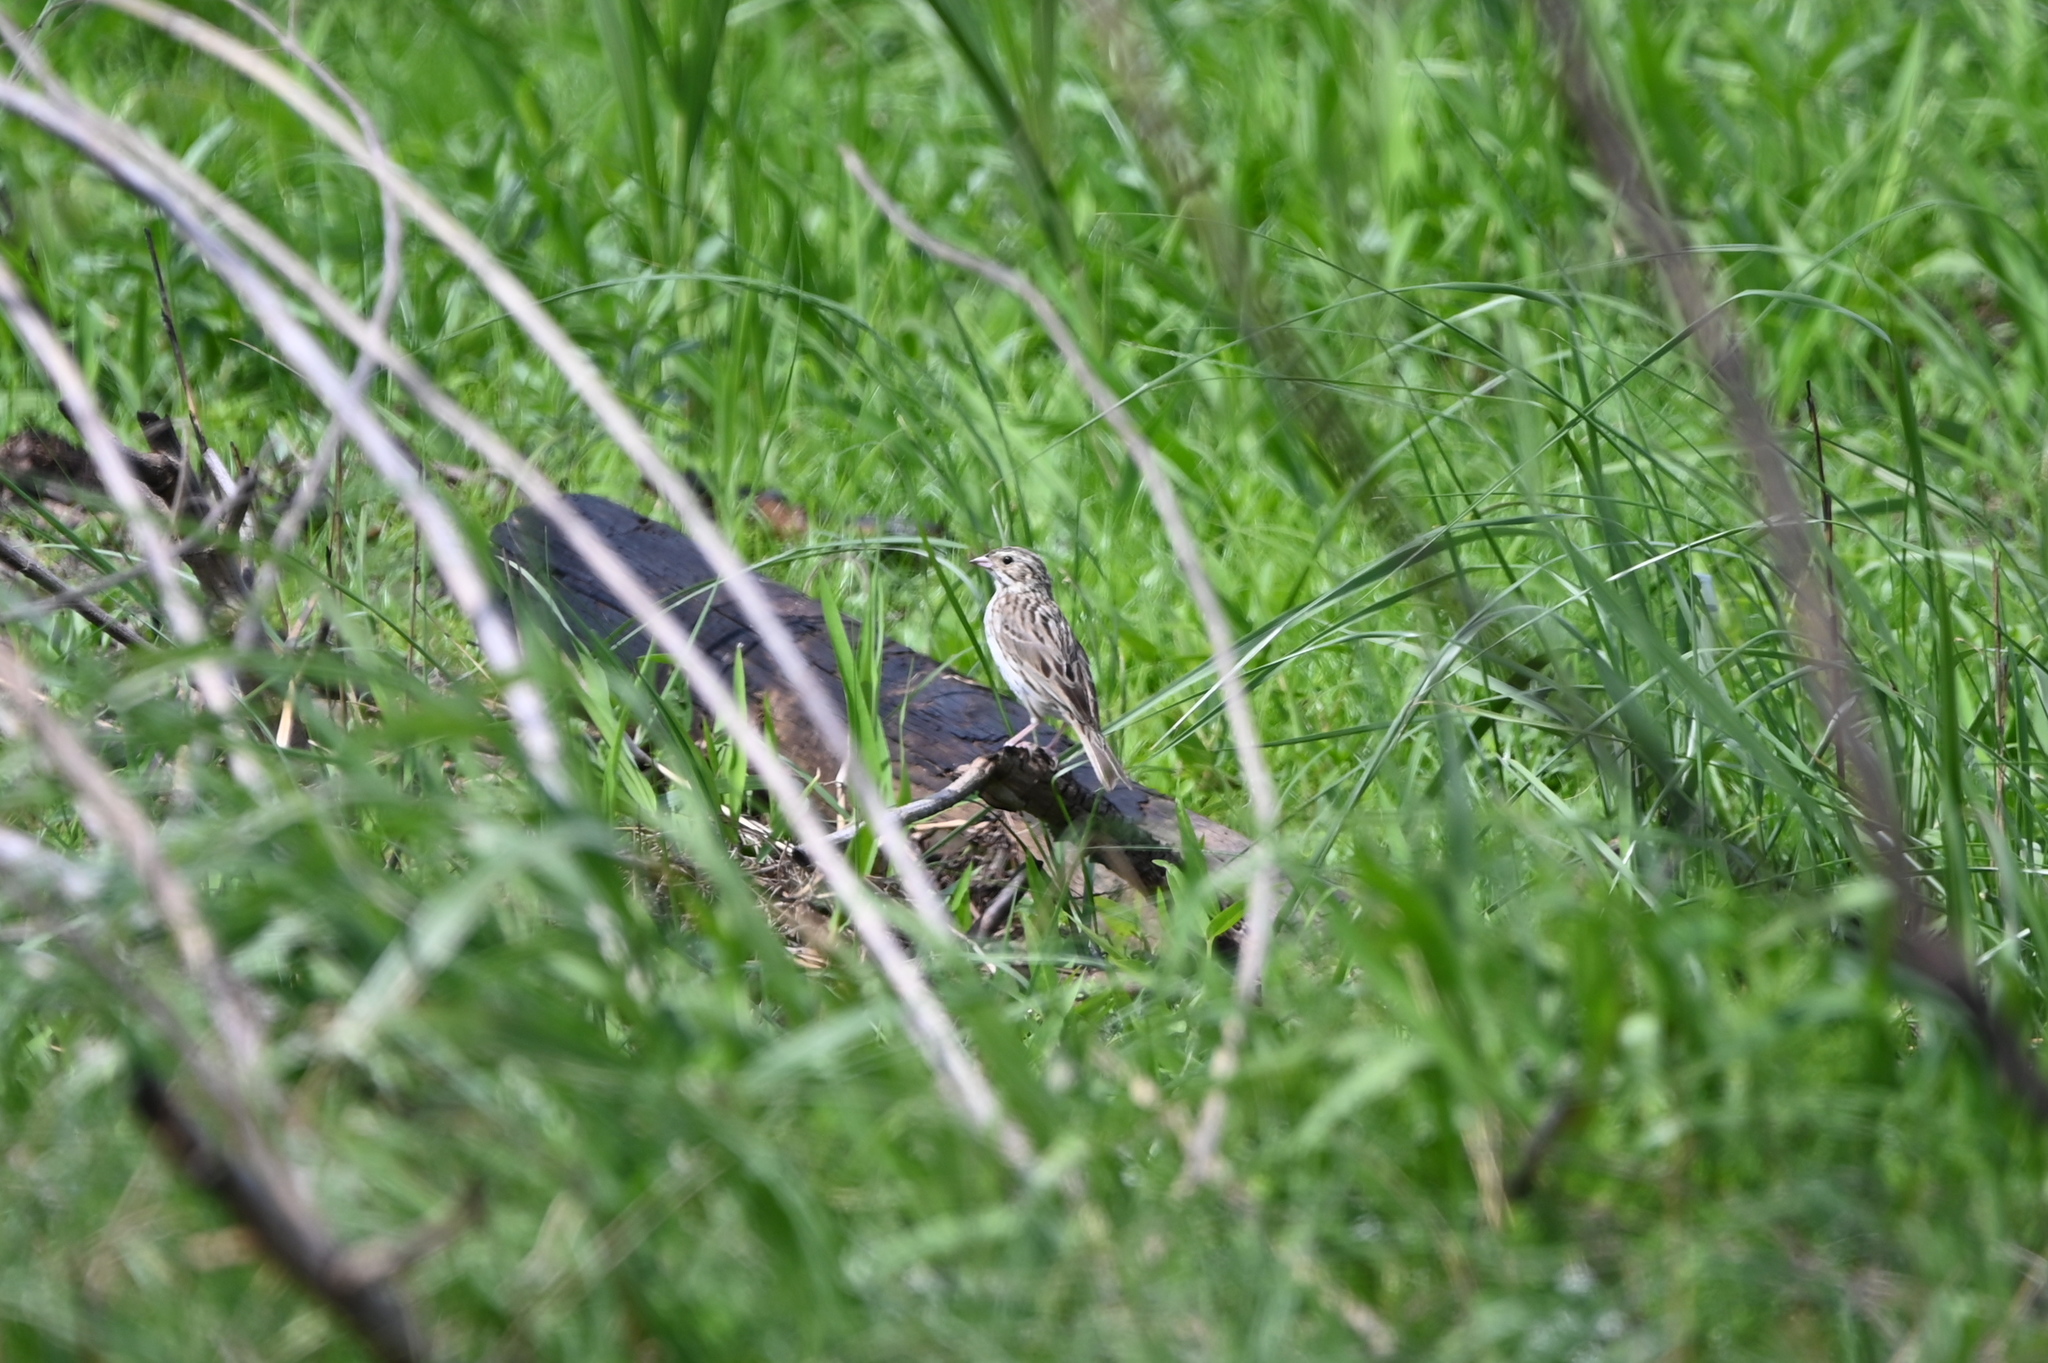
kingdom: Animalia
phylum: Chordata
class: Aves
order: Passeriformes
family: Passerellidae
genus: Passerculus
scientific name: Passerculus sandwichensis
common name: Savannah sparrow
